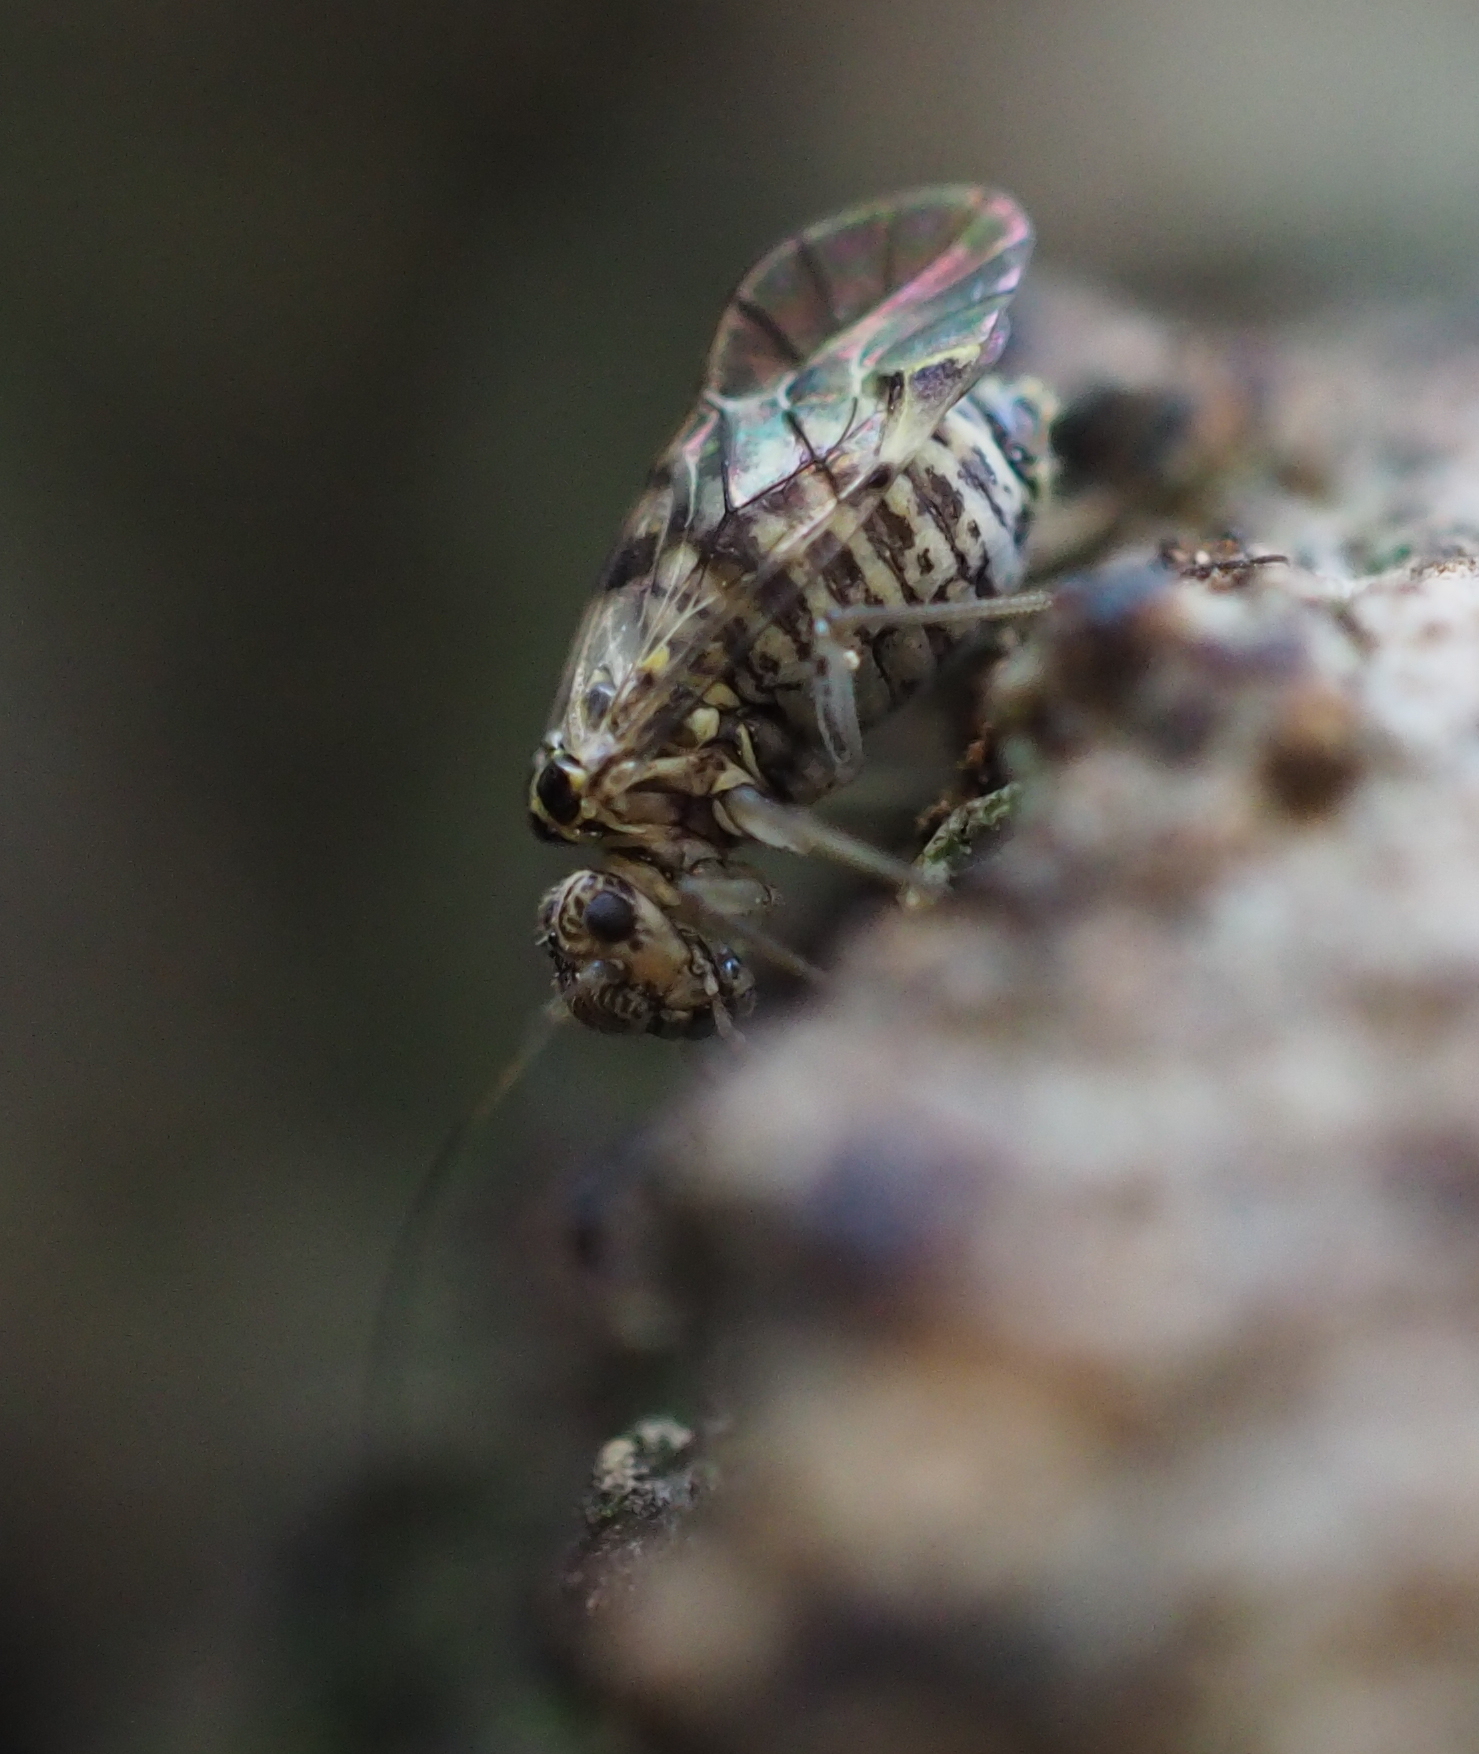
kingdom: Animalia
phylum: Arthropoda
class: Insecta
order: Psocodea
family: Psocidae
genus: Psococerastis
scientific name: Psococerastis gibbosa
